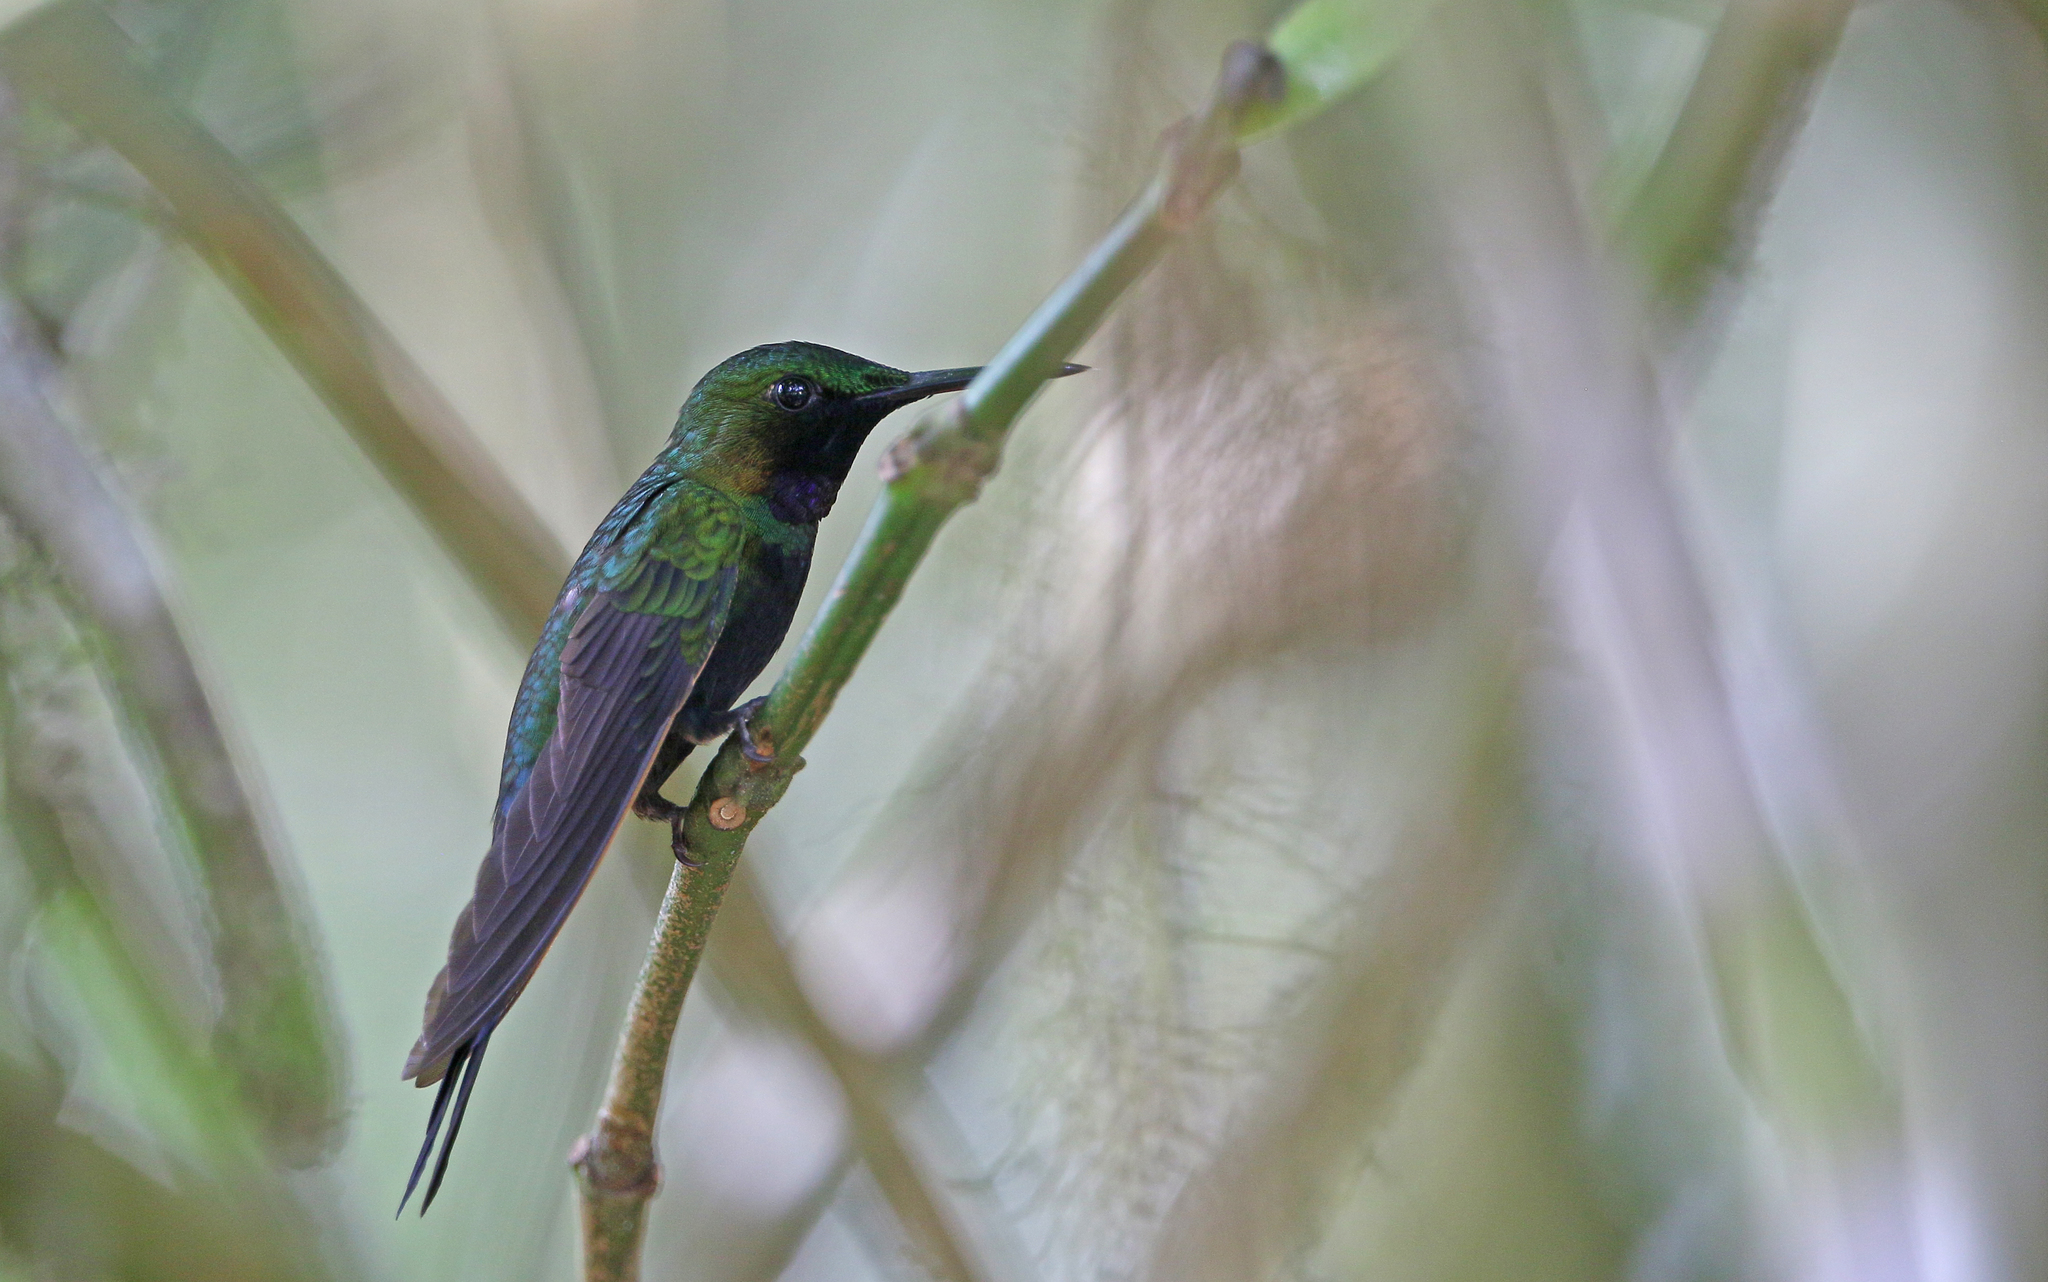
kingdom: Animalia
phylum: Chordata
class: Aves
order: Apodiformes
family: Trochilidae
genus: Heliodoxa
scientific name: Heliodoxa schreibersii
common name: Black-throated brilliant
